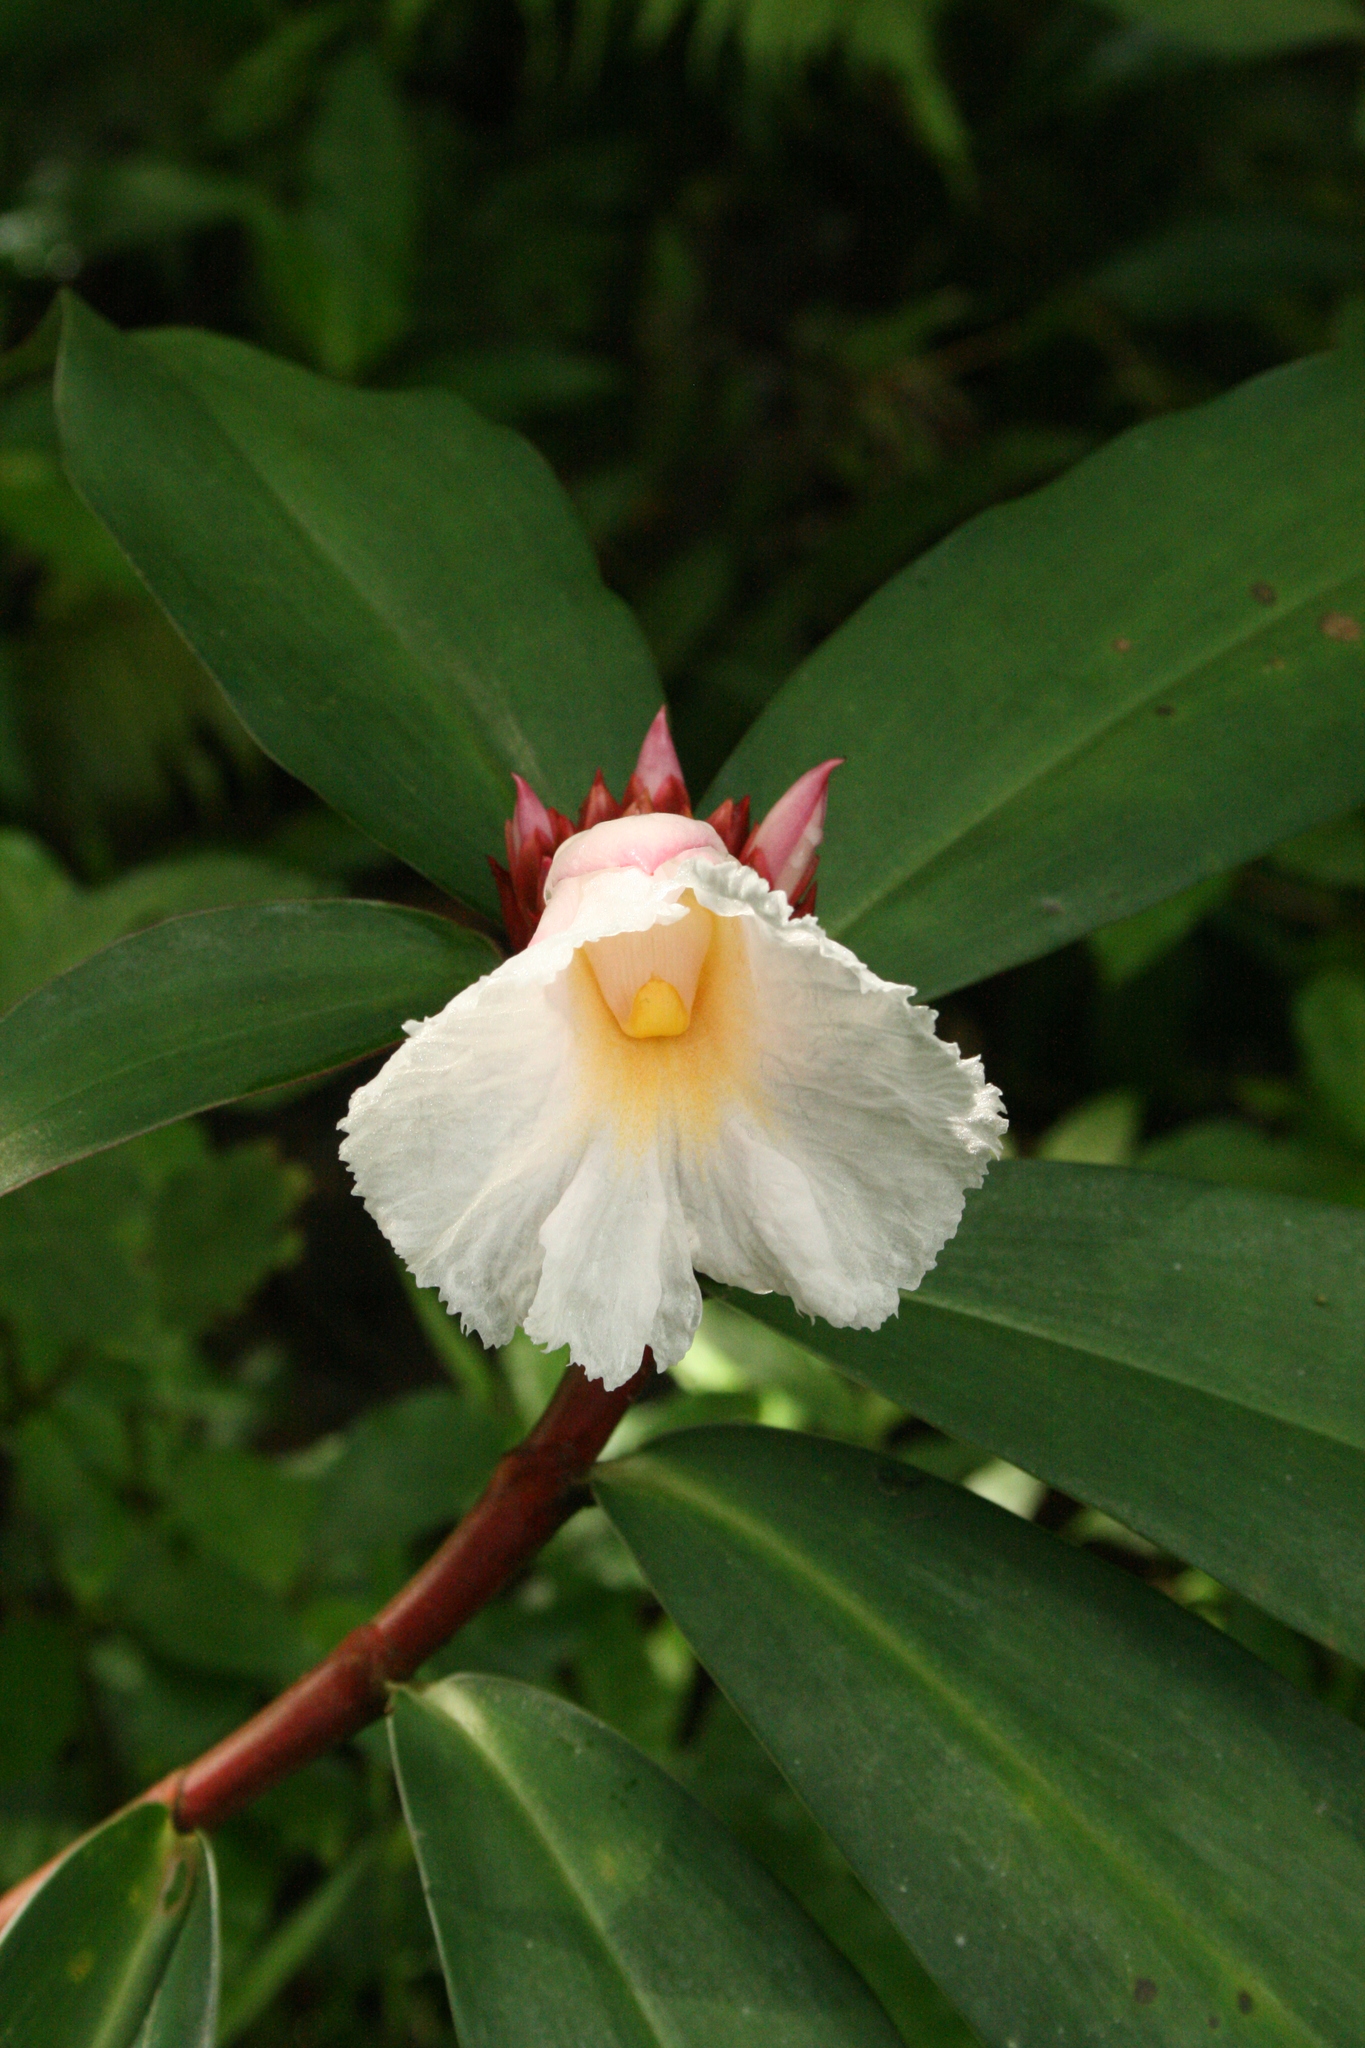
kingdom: Plantae
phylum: Tracheophyta
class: Liliopsida
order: Zingiberales
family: Costaceae
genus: Hellenia
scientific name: Hellenia speciosa
